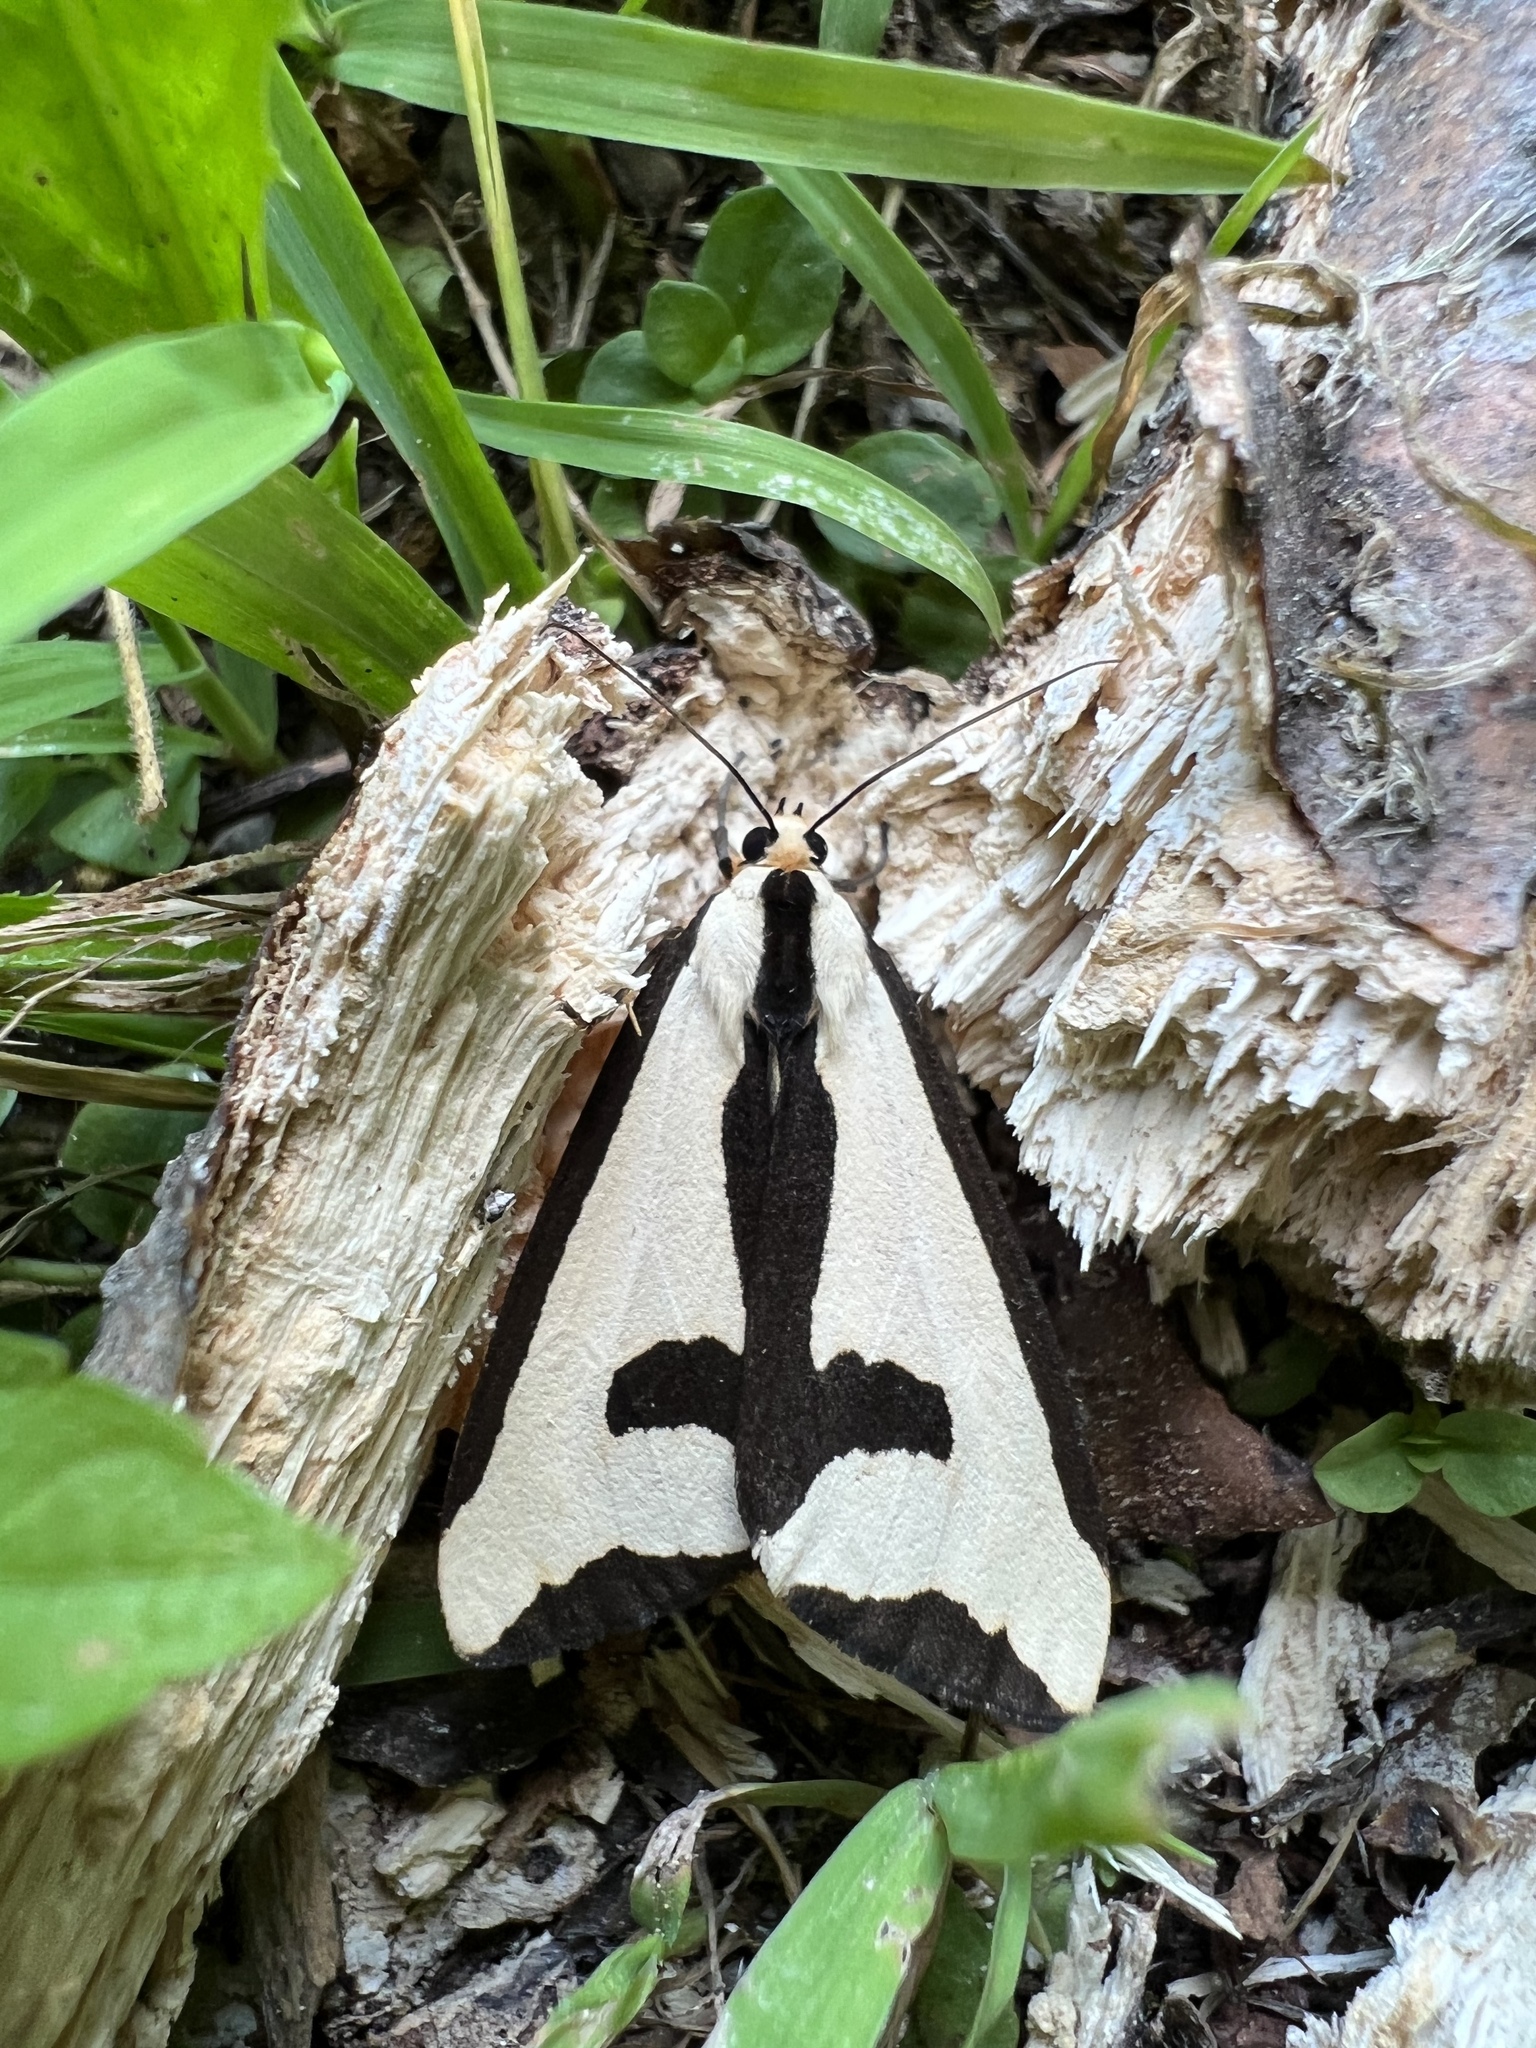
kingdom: Animalia
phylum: Arthropoda
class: Insecta
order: Lepidoptera
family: Erebidae
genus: Haploa
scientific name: Haploa clymene
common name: Clymene moth
